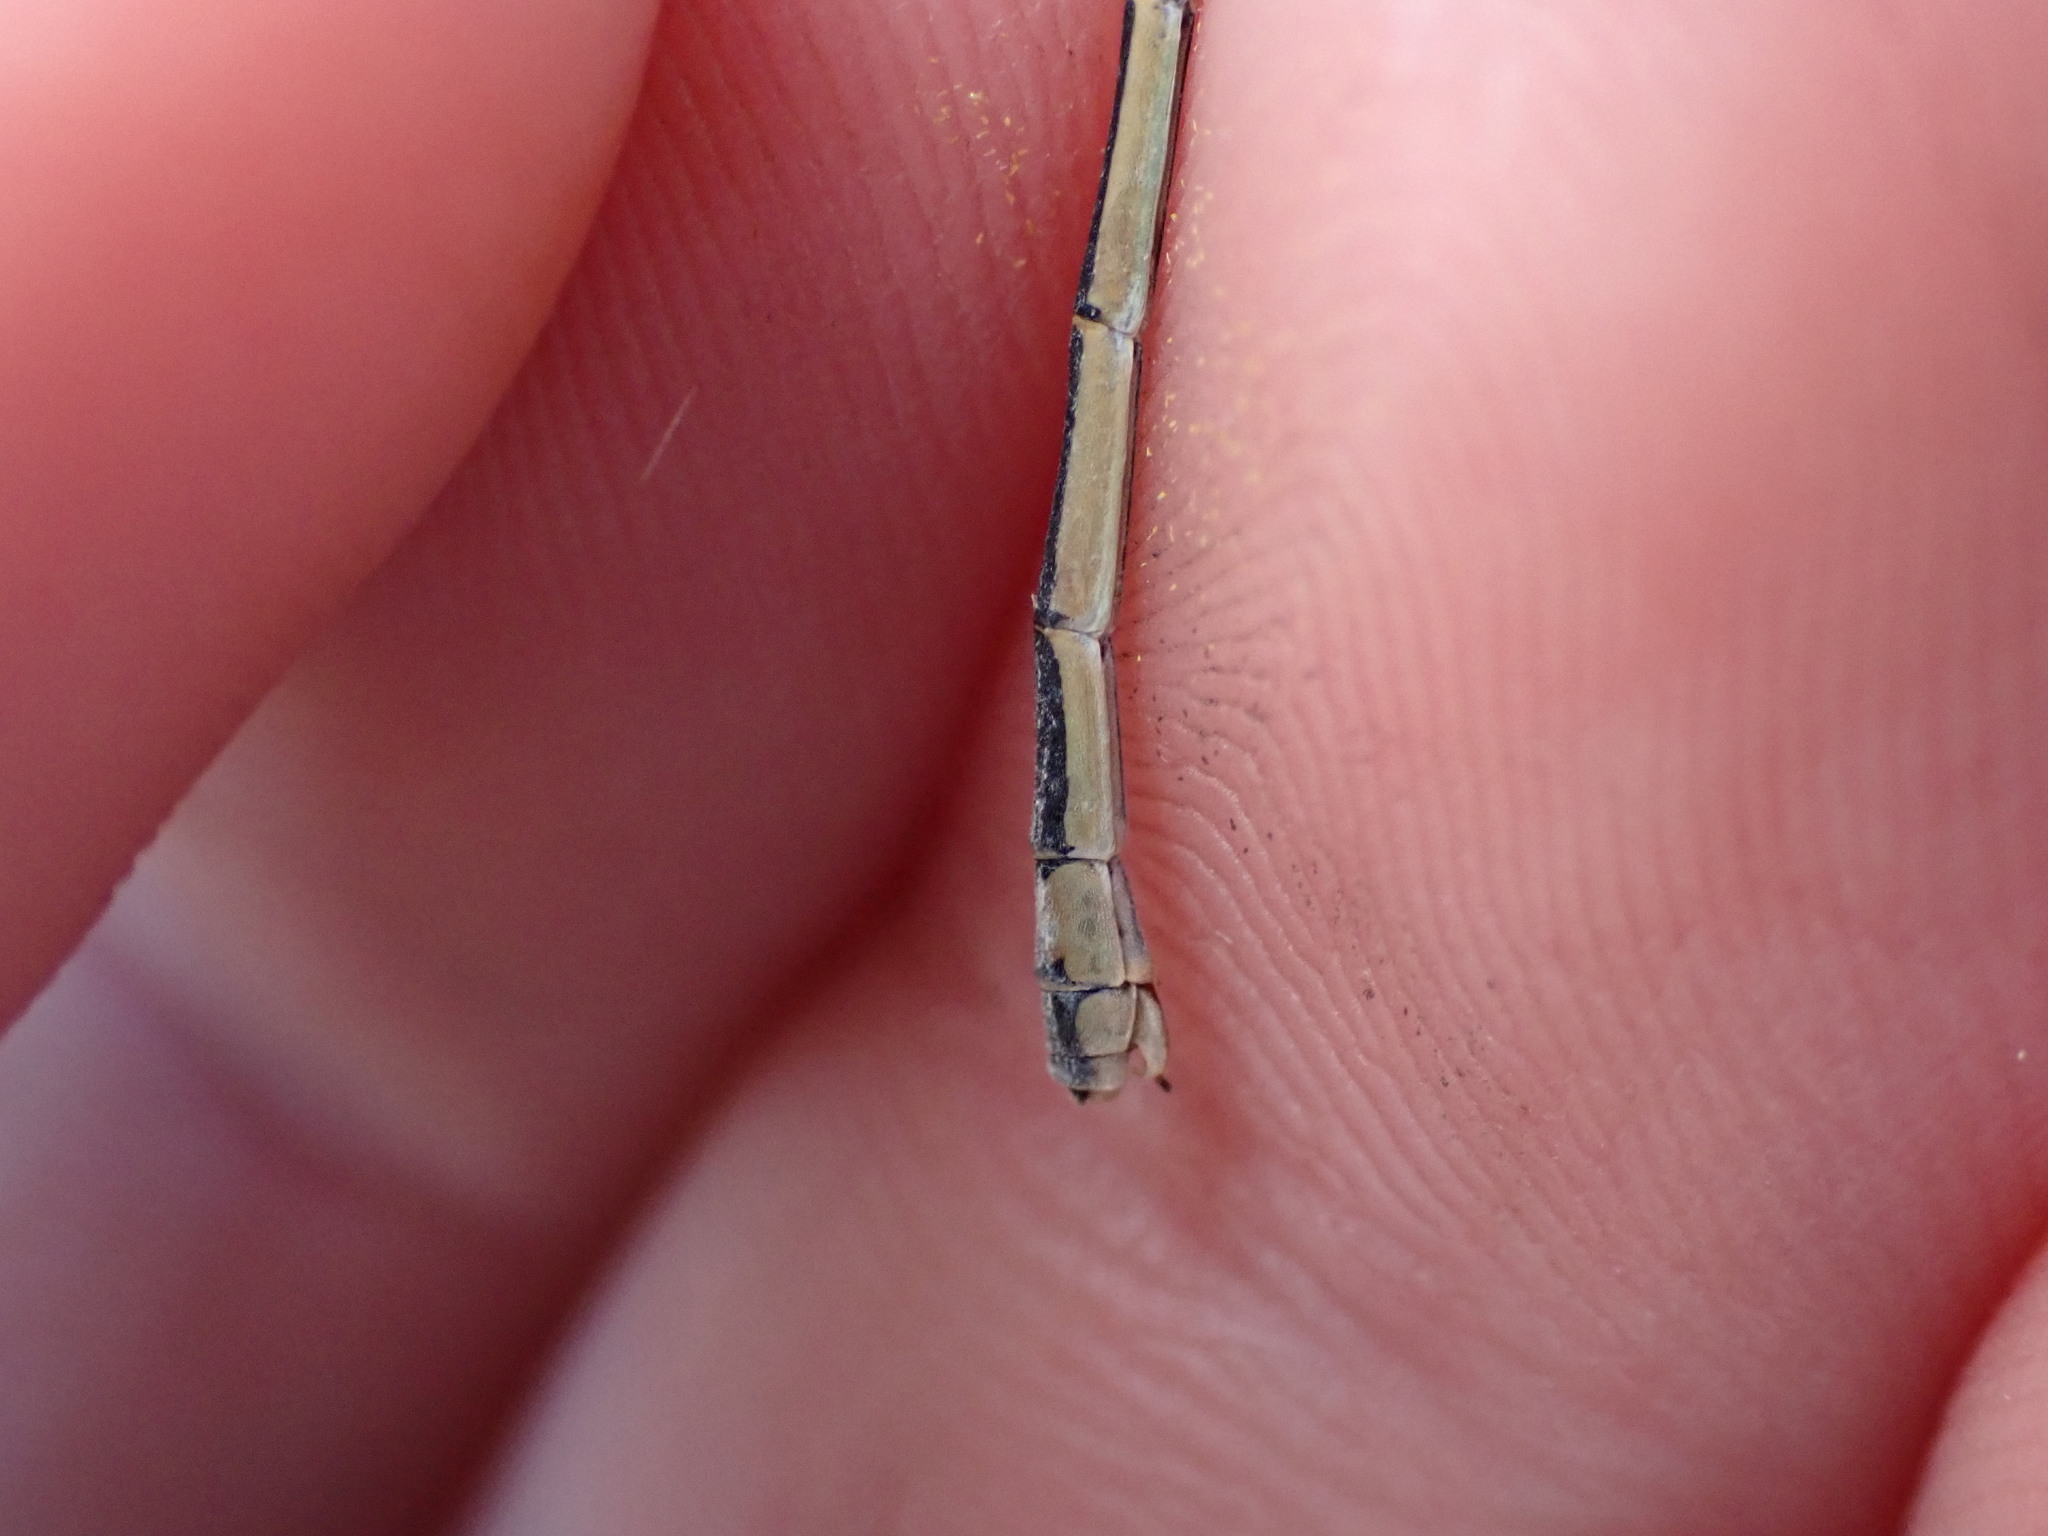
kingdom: Animalia
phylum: Arthropoda
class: Insecta
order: Odonata
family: Coenagrionidae
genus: Ischnura
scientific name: Ischnura elegans
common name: Blue-tailed damselfly
